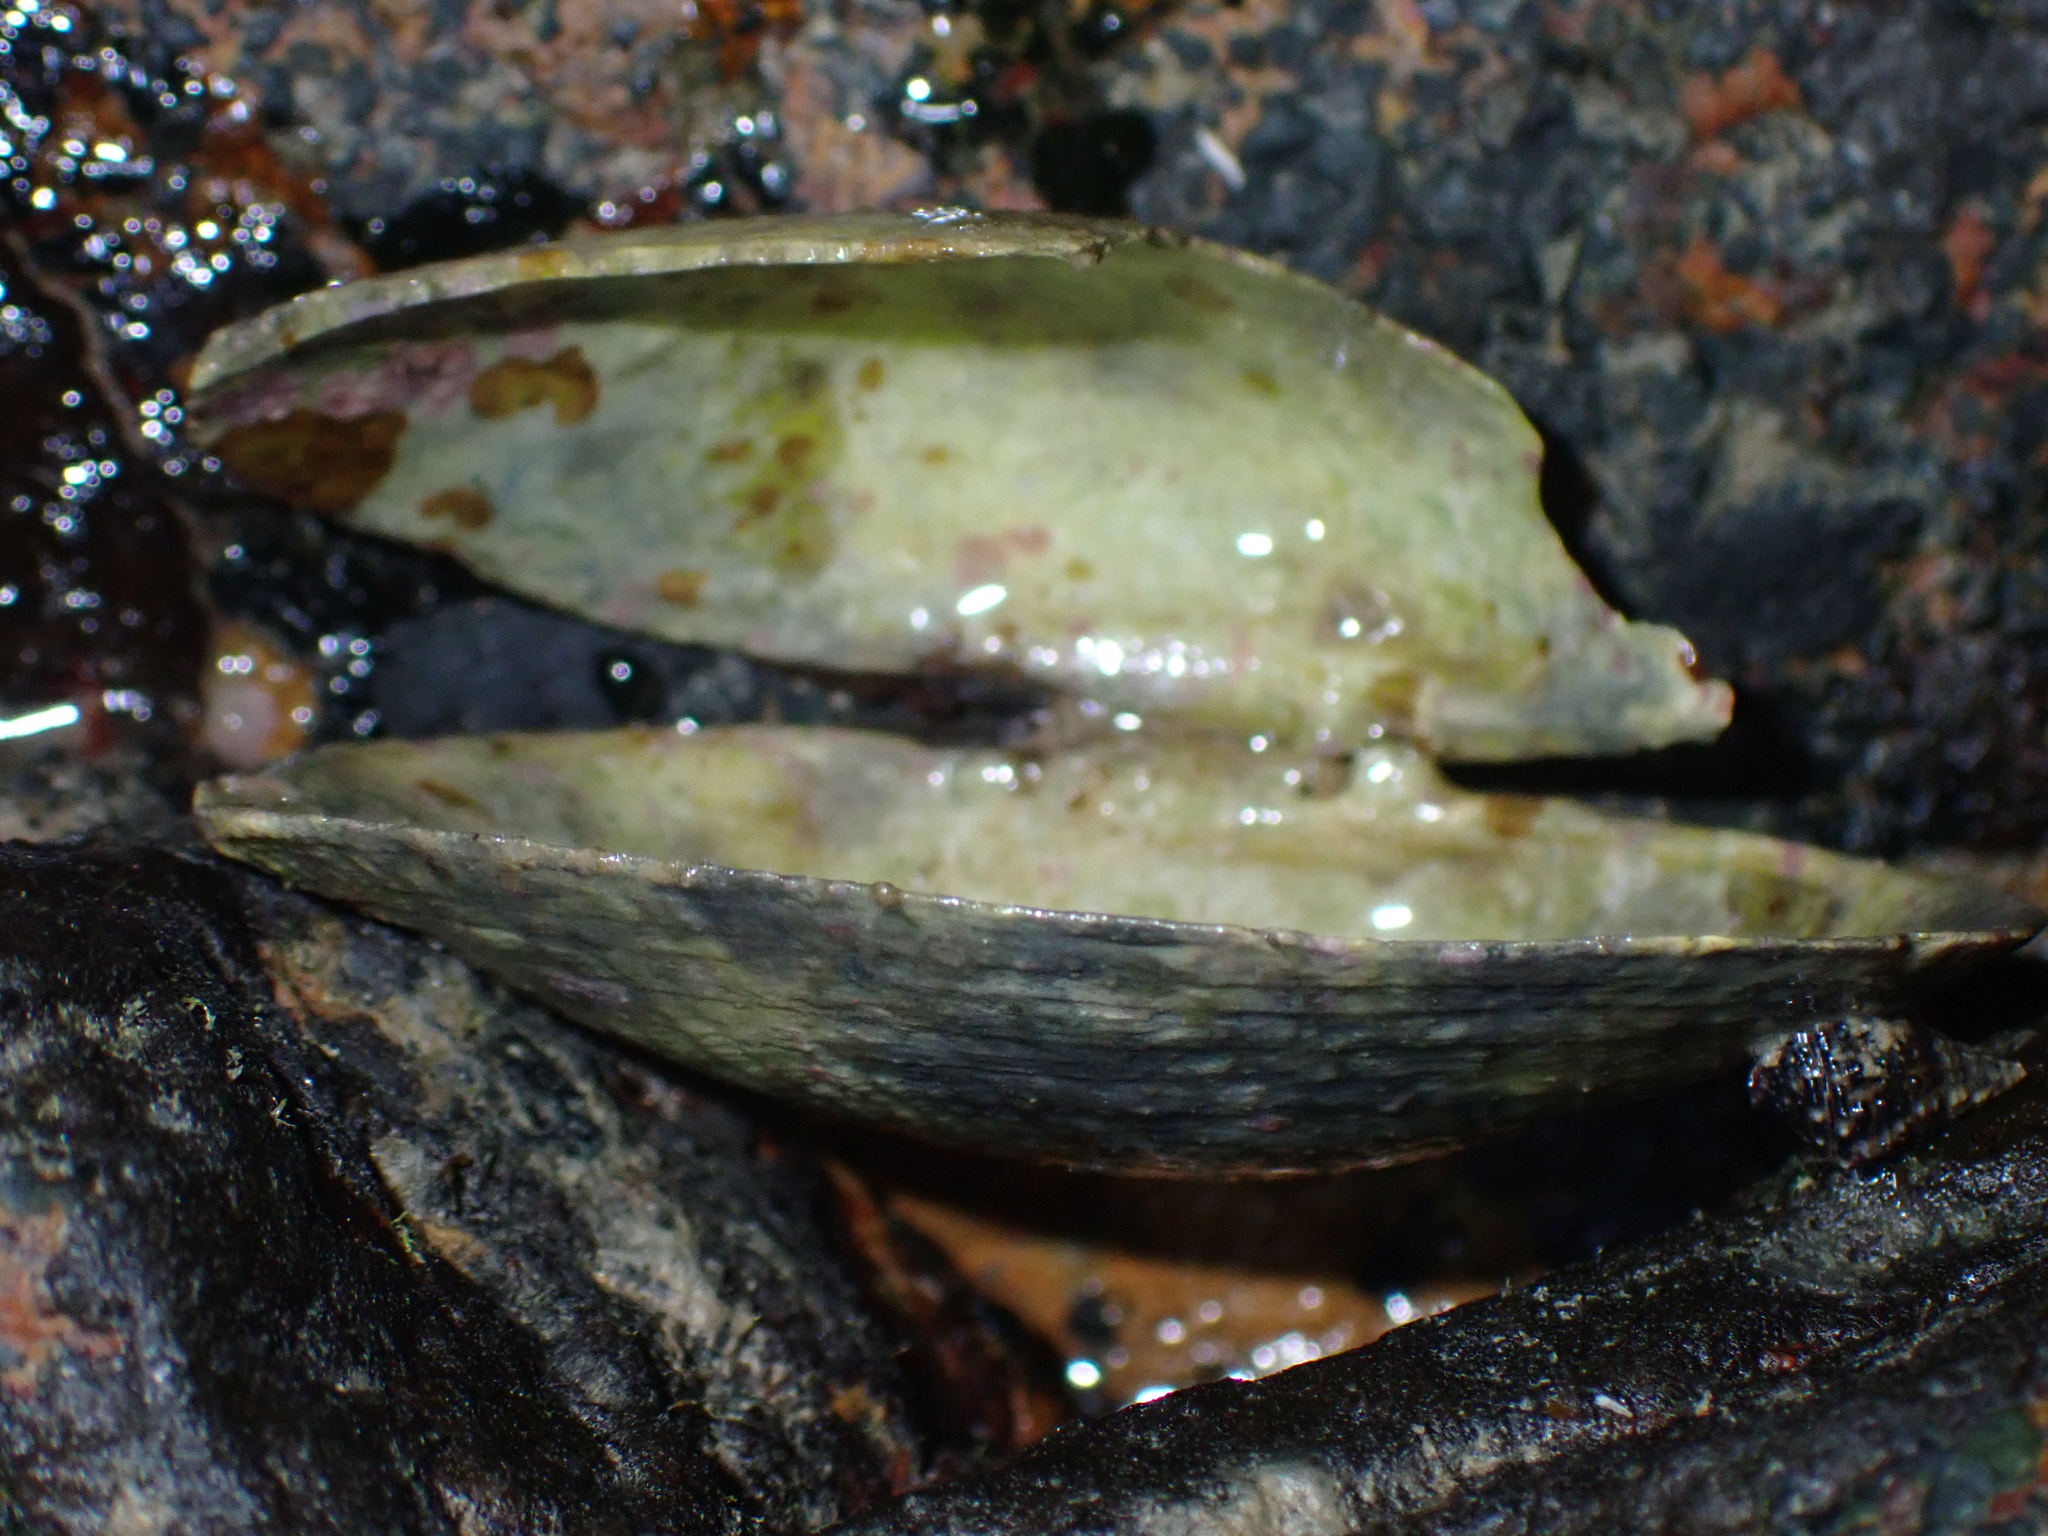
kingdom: Animalia
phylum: Mollusca
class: Bivalvia
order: Cardiida
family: Psammobiidae
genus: Asaphis
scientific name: Asaphis violascens
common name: Pacific asaphis
